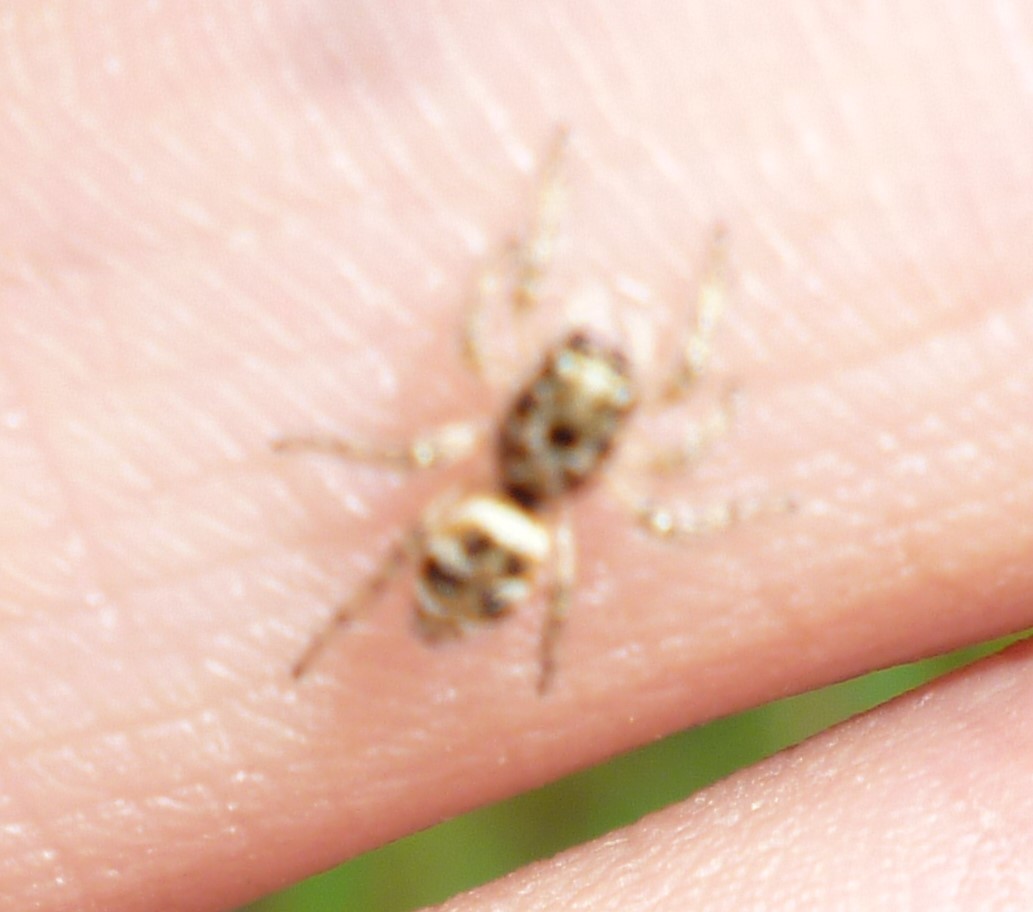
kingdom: Animalia
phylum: Arthropoda
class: Arachnida
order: Araneae
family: Salticidae
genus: Salticus
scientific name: Salticus scenicus
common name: Zebra jumper
